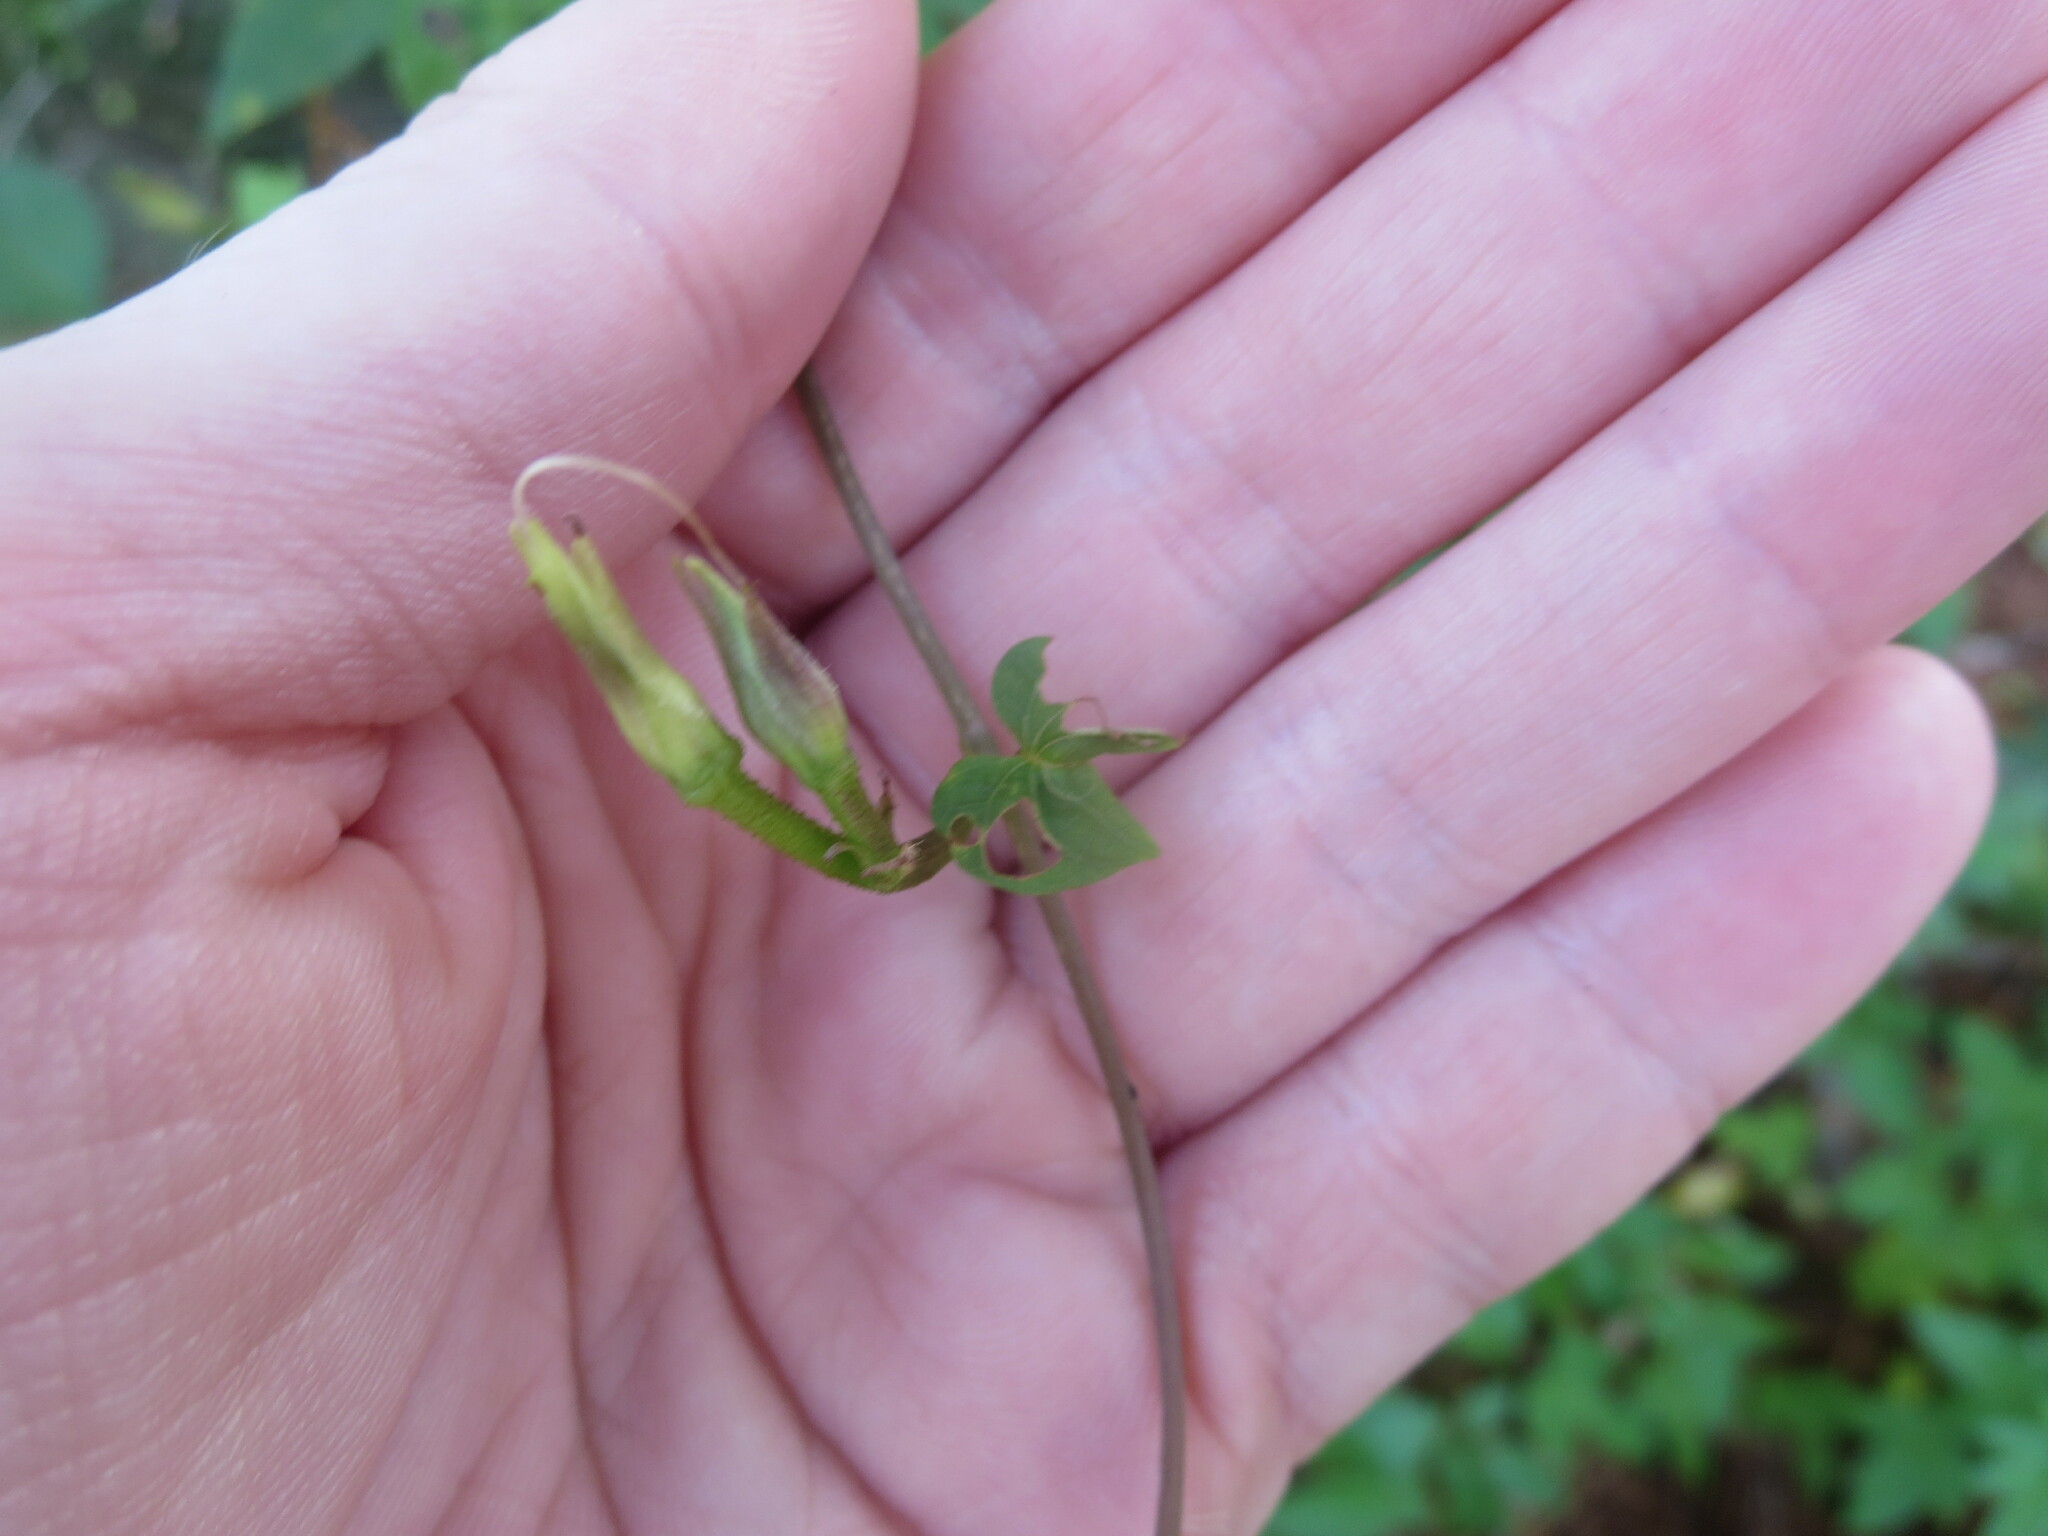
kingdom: Plantae
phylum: Tracheophyta
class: Magnoliopsida
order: Solanales
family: Convolvulaceae
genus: Ipomoea
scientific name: Ipomoea cordatotriloba
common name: Cotton morning glory
